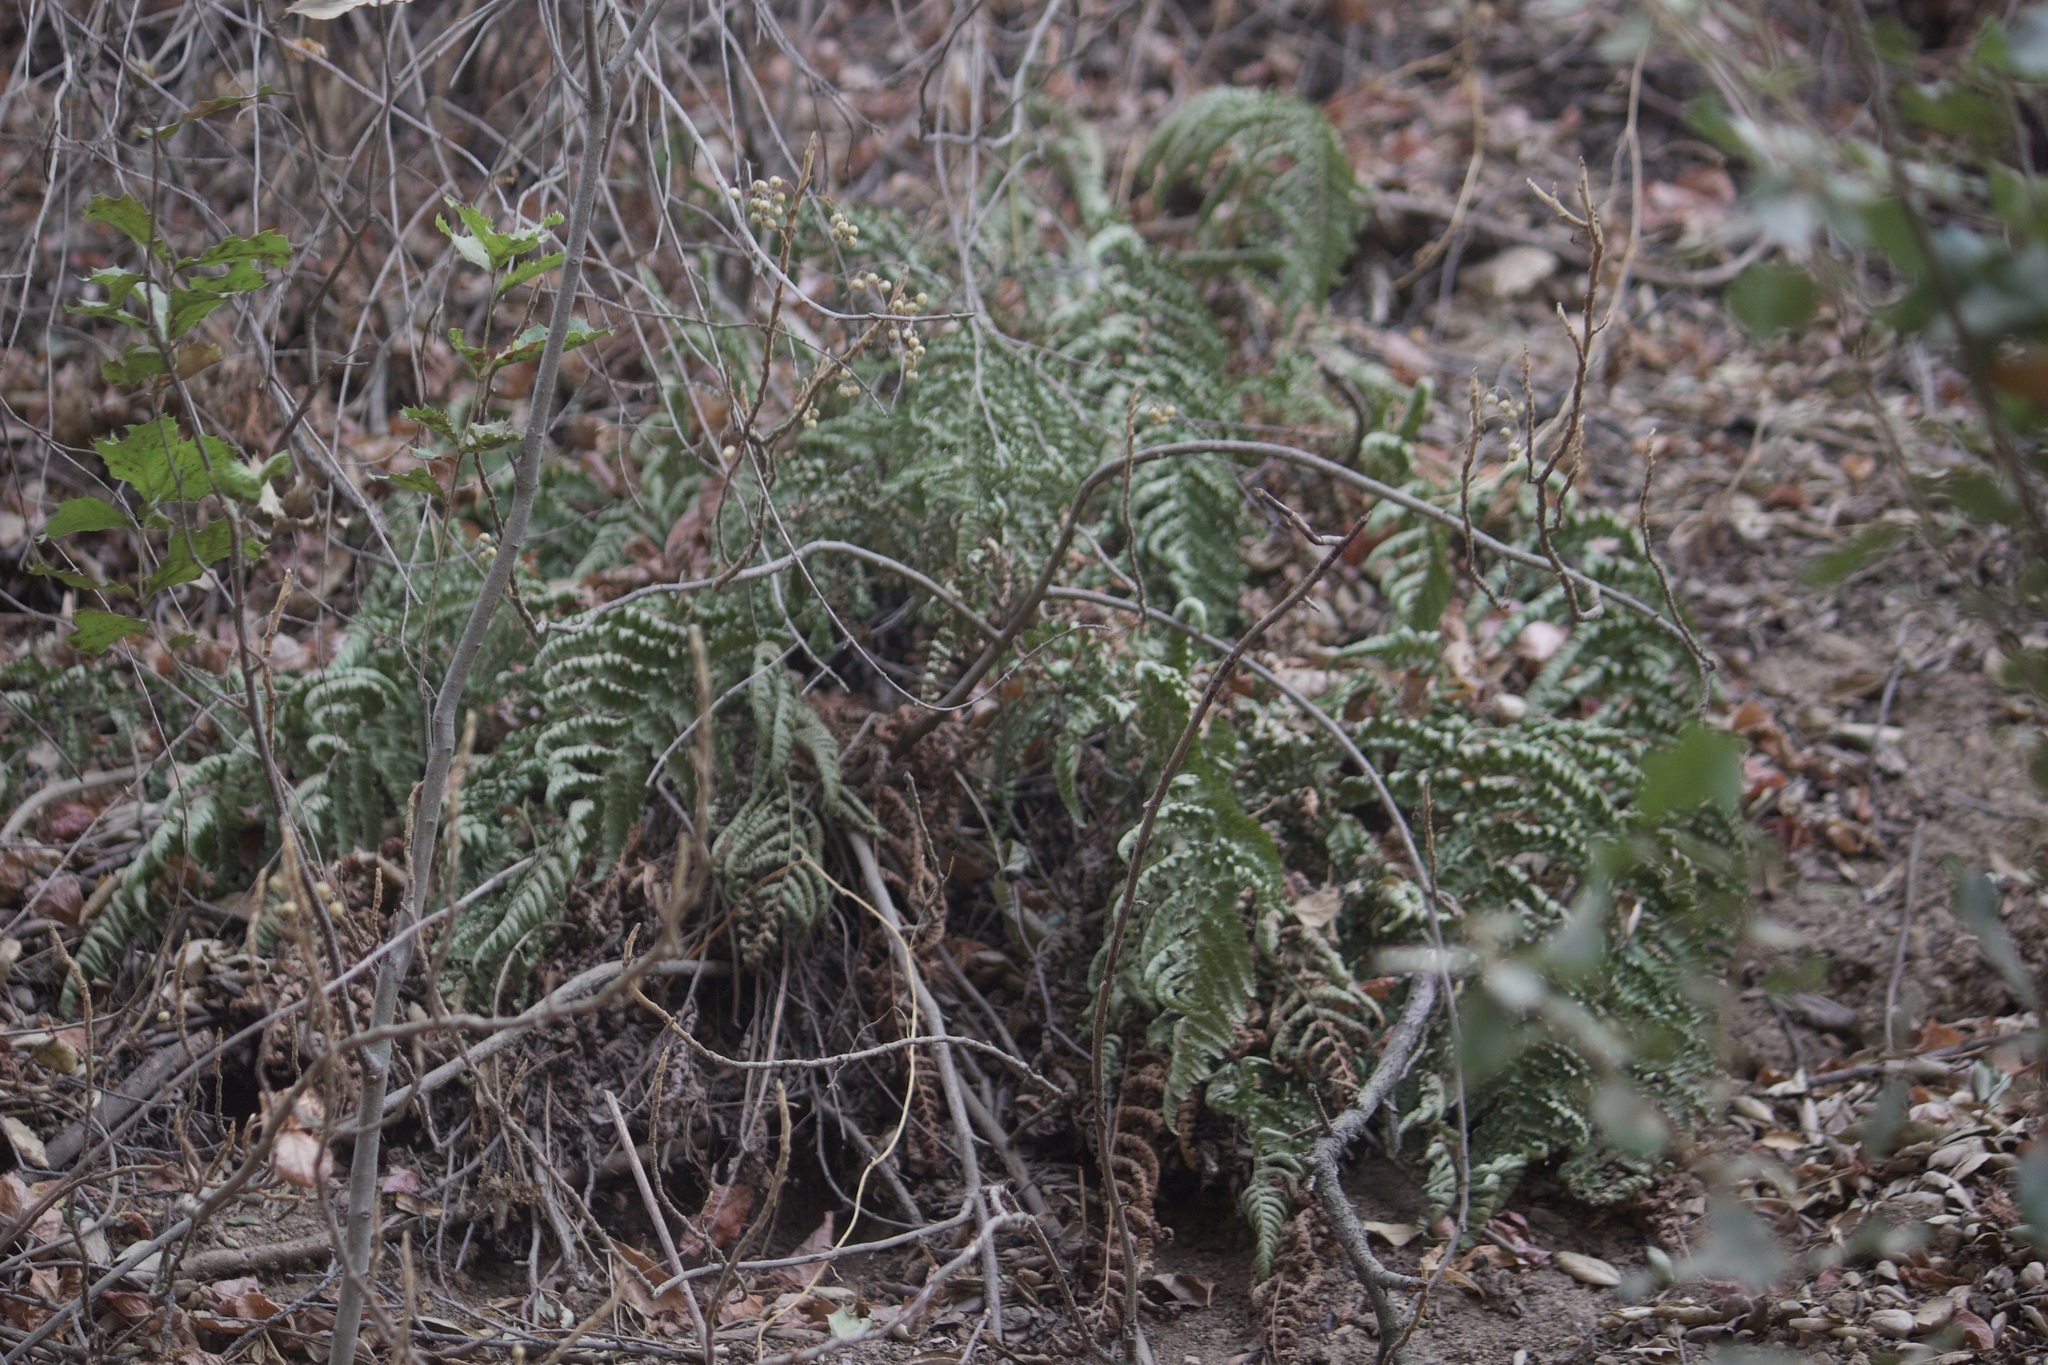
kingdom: Plantae
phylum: Tracheophyta
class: Polypodiopsida
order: Polypodiales
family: Dryopteridaceae
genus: Dryopteris
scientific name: Dryopteris arguta
